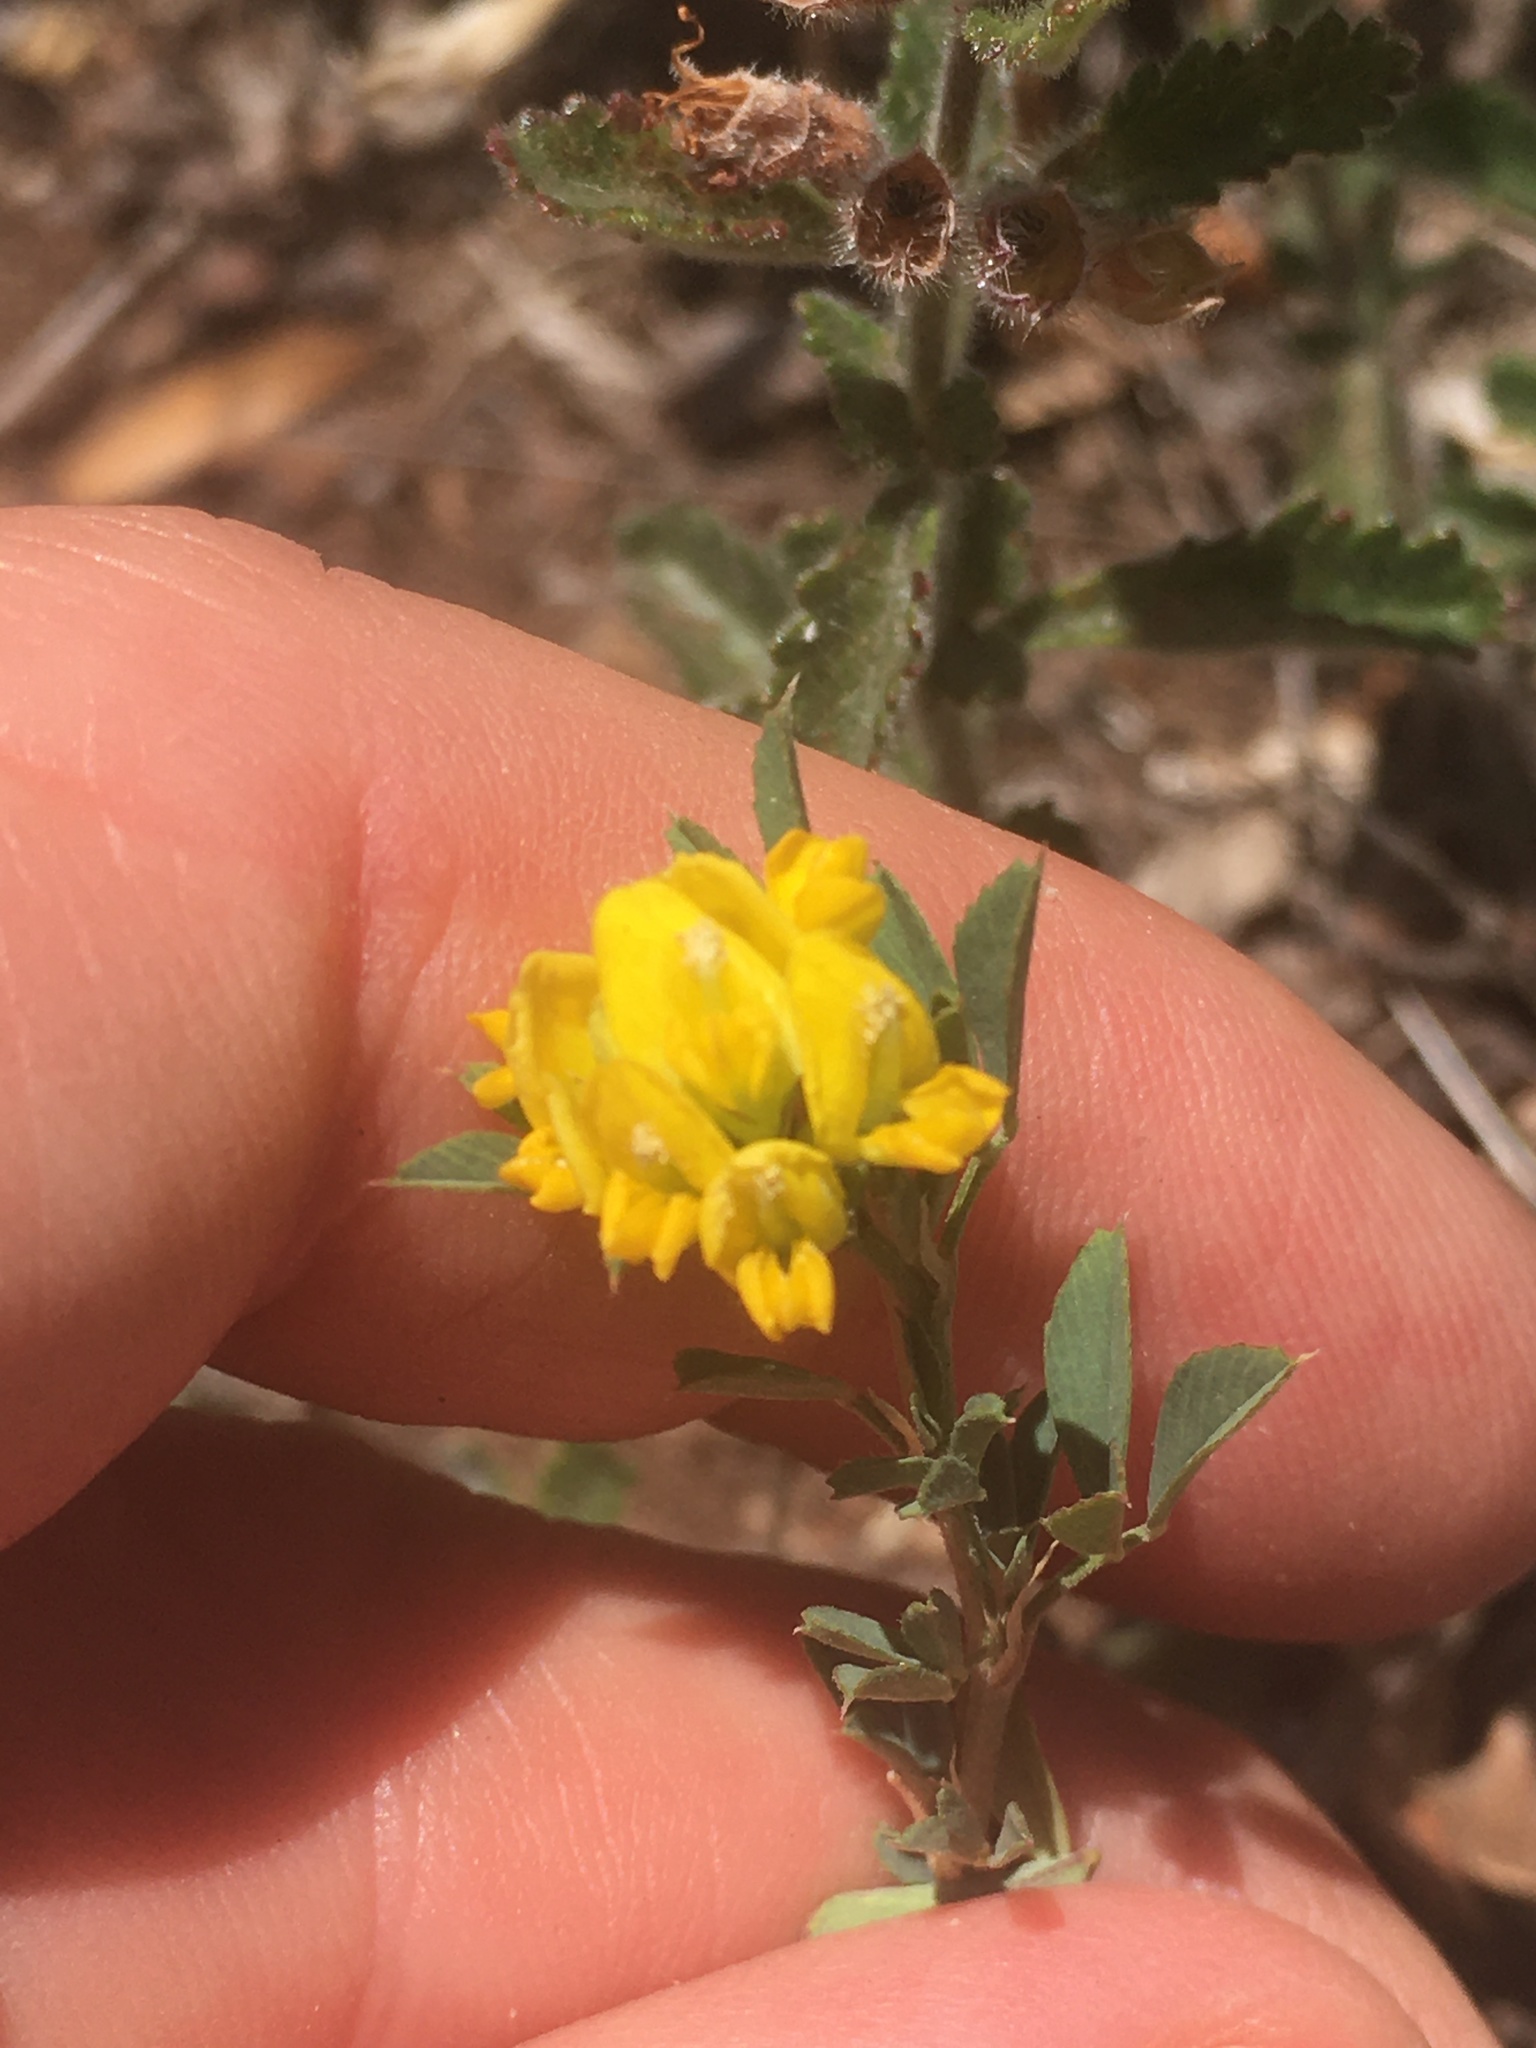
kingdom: Plantae
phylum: Tracheophyta
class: Magnoliopsida
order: Fabales
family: Fabaceae
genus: Medicago
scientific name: Medicago falcata
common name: Sickle medick
